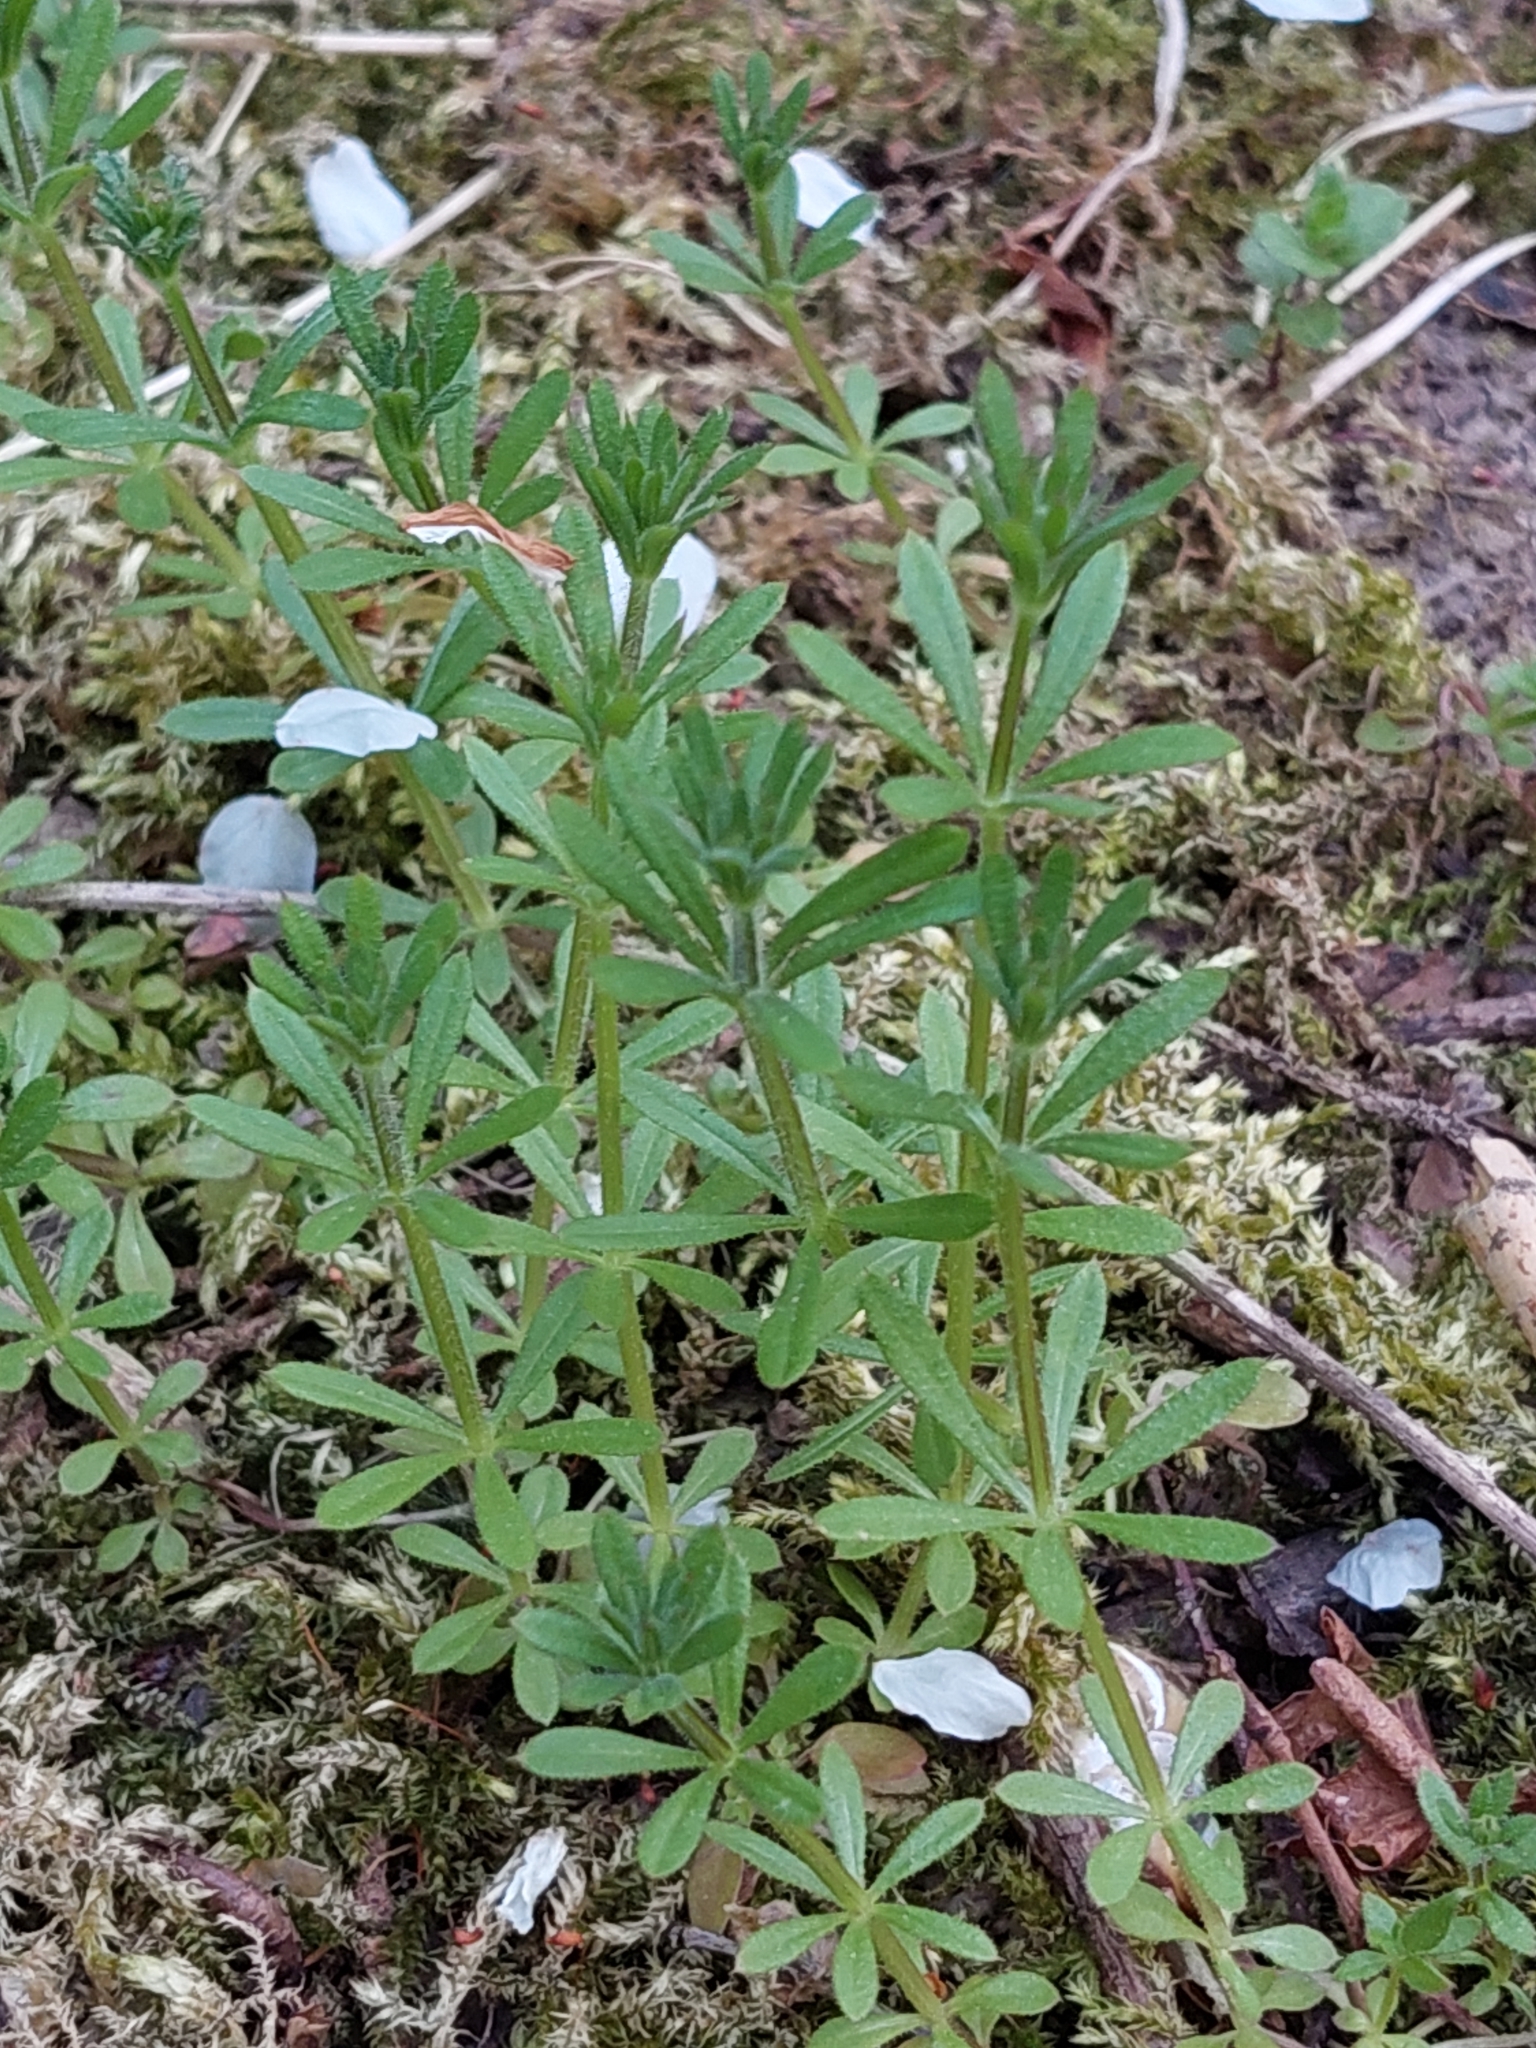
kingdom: Plantae
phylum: Tracheophyta
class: Magnoliopsida
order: Gentianales
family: Rubiaceae
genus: Galium
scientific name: Galium aparine
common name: Cleavers
